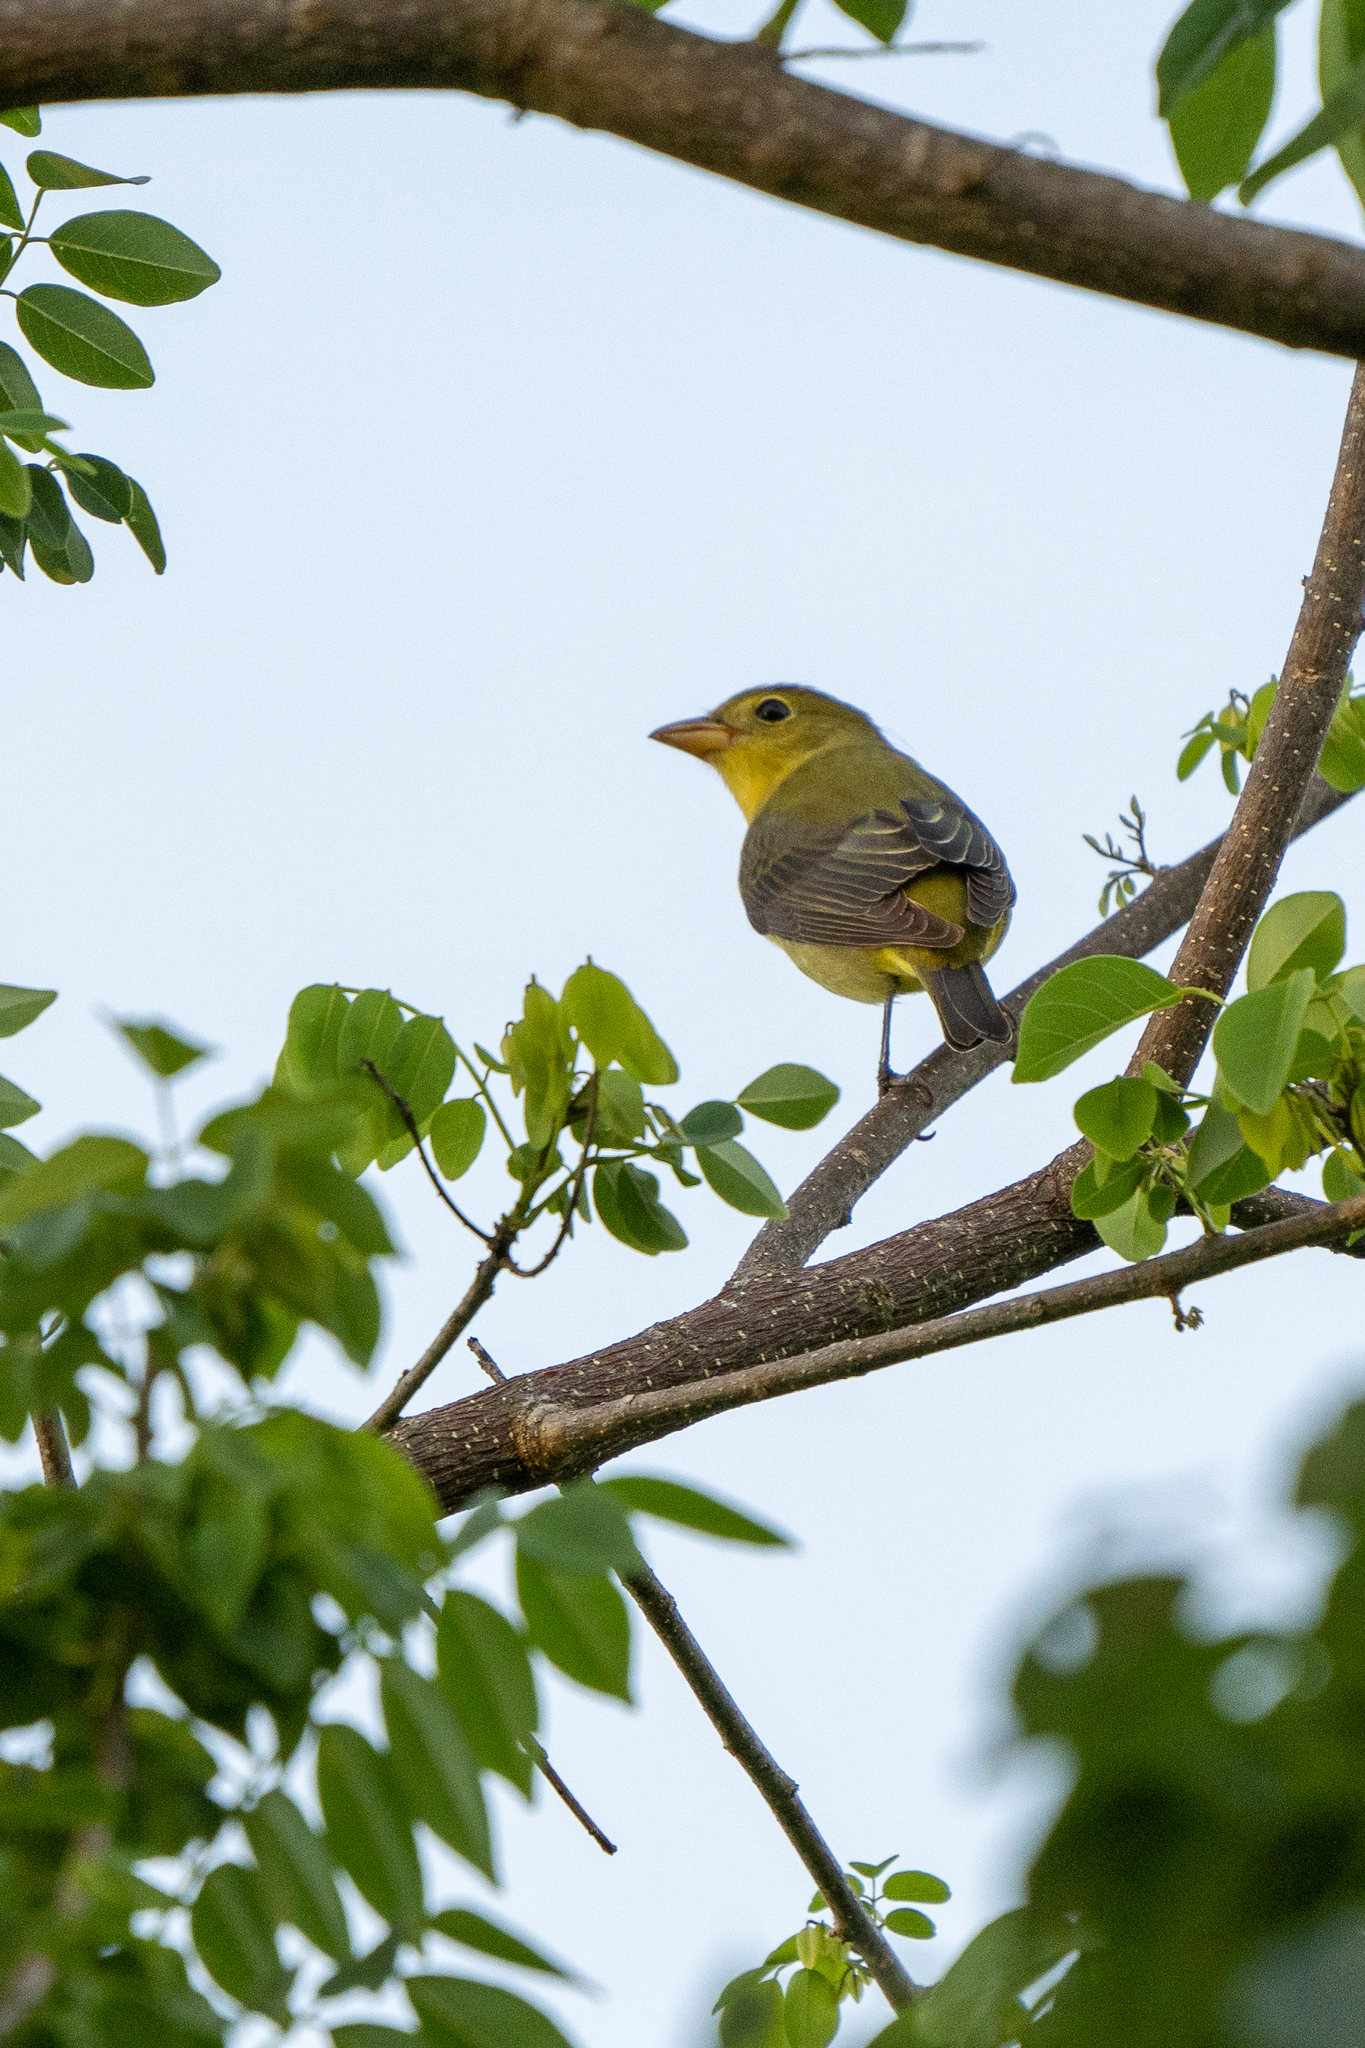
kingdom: Animalia
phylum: Chordata
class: Aves
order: Passeriformes
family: Cardinalidae
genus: Piranga
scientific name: Piranga olivacea
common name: Scarlet tanager
